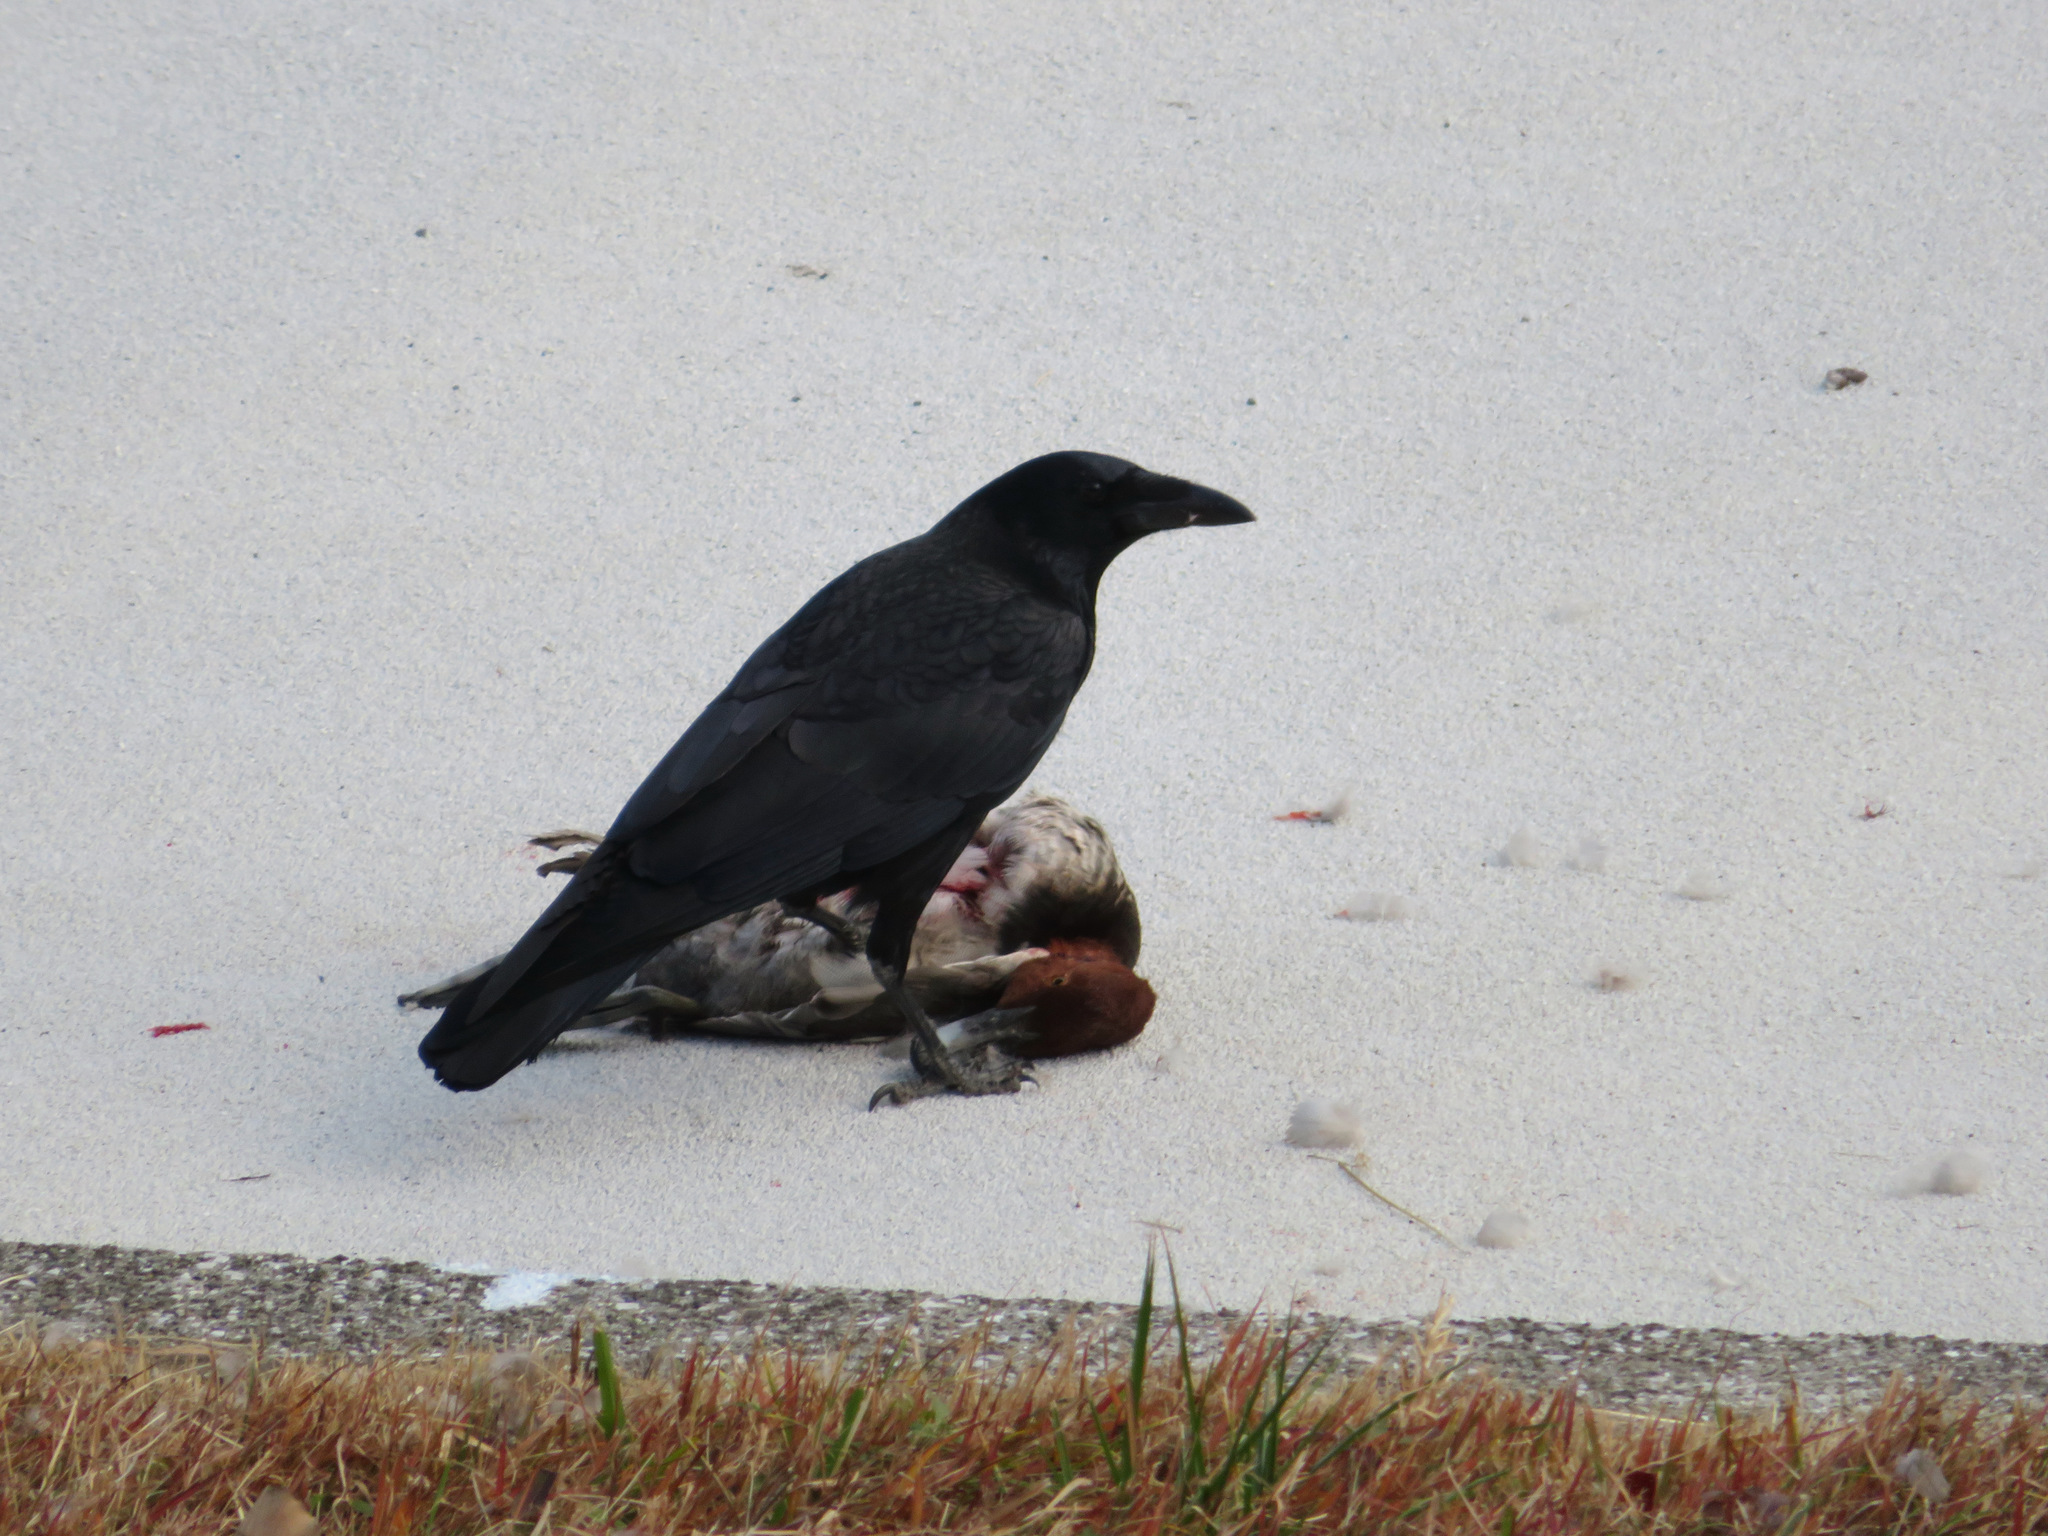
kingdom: Animalia
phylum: Chordata
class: Aves
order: Passeriformes
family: Corvidae
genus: Corvus
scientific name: Corvus corone
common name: Carrion crow
